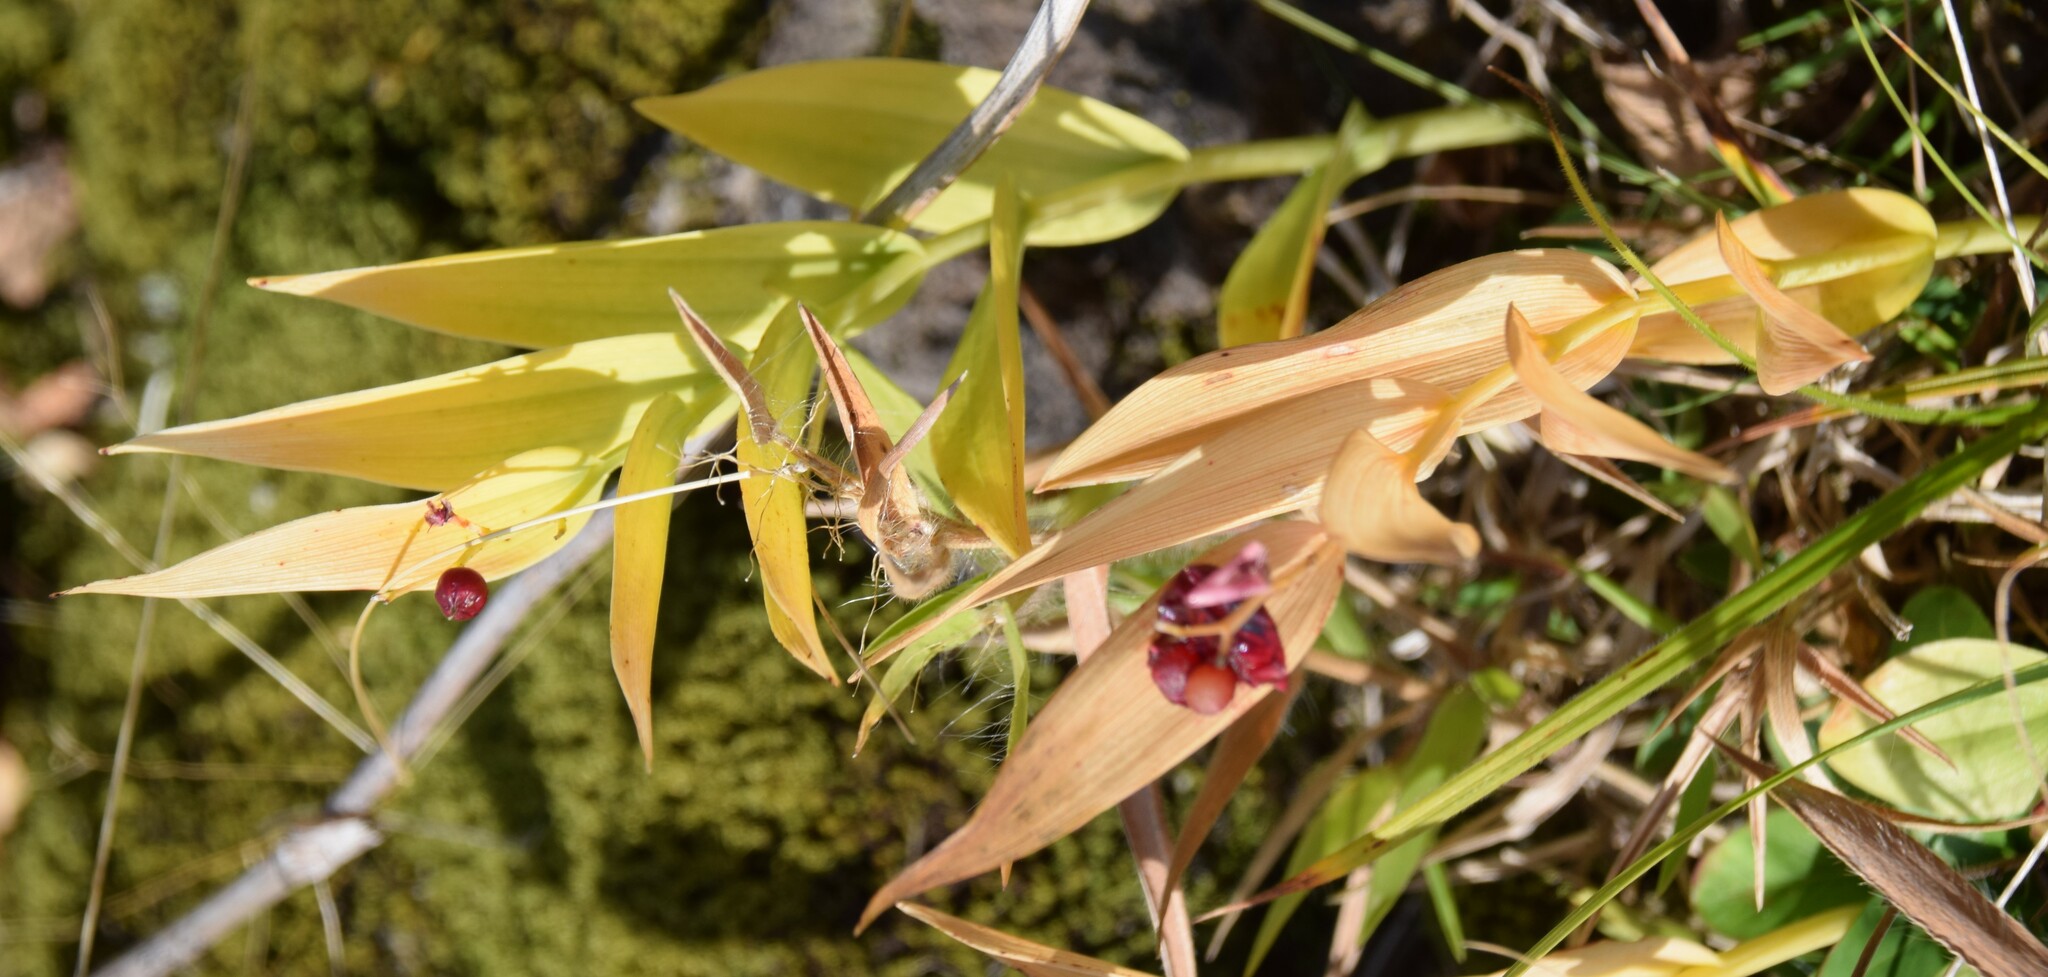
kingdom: Plantae
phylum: Tracheophyta
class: Liliopsida
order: Asparagales
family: Asparagaceae
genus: Maianthemum
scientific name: Maianthemum stellatum
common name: Little false solomon's seal
